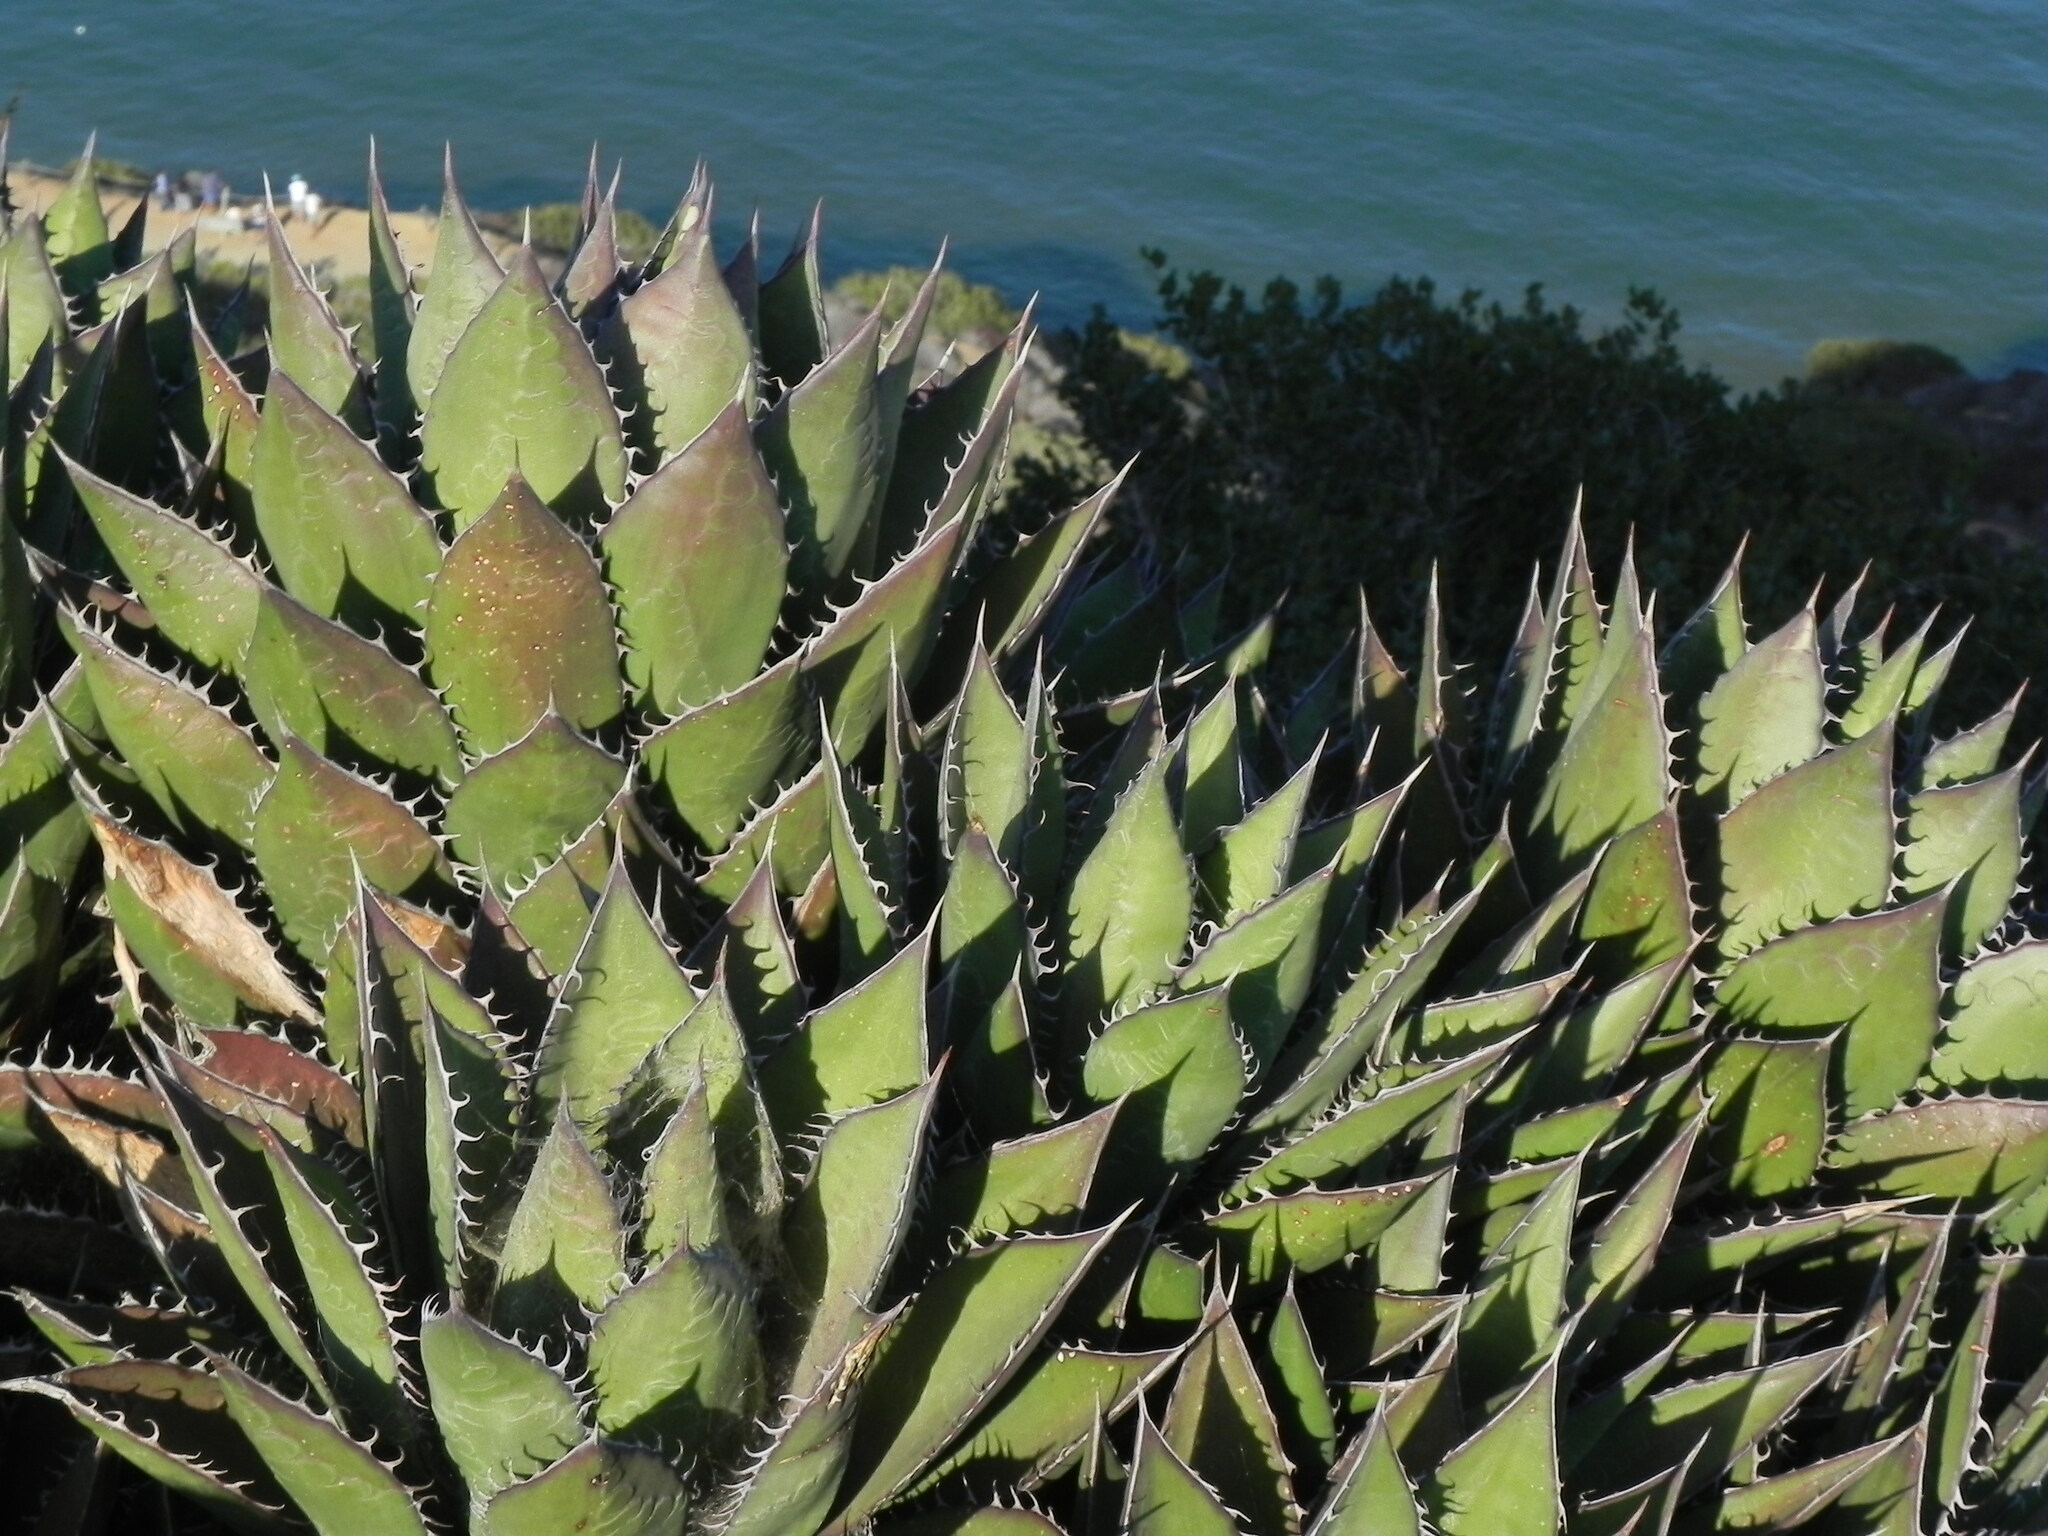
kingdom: Plantae
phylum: Tracheophyta
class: Liliopsida
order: Asparagales
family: Asparagaceae
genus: Agave
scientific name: Agave shawii
